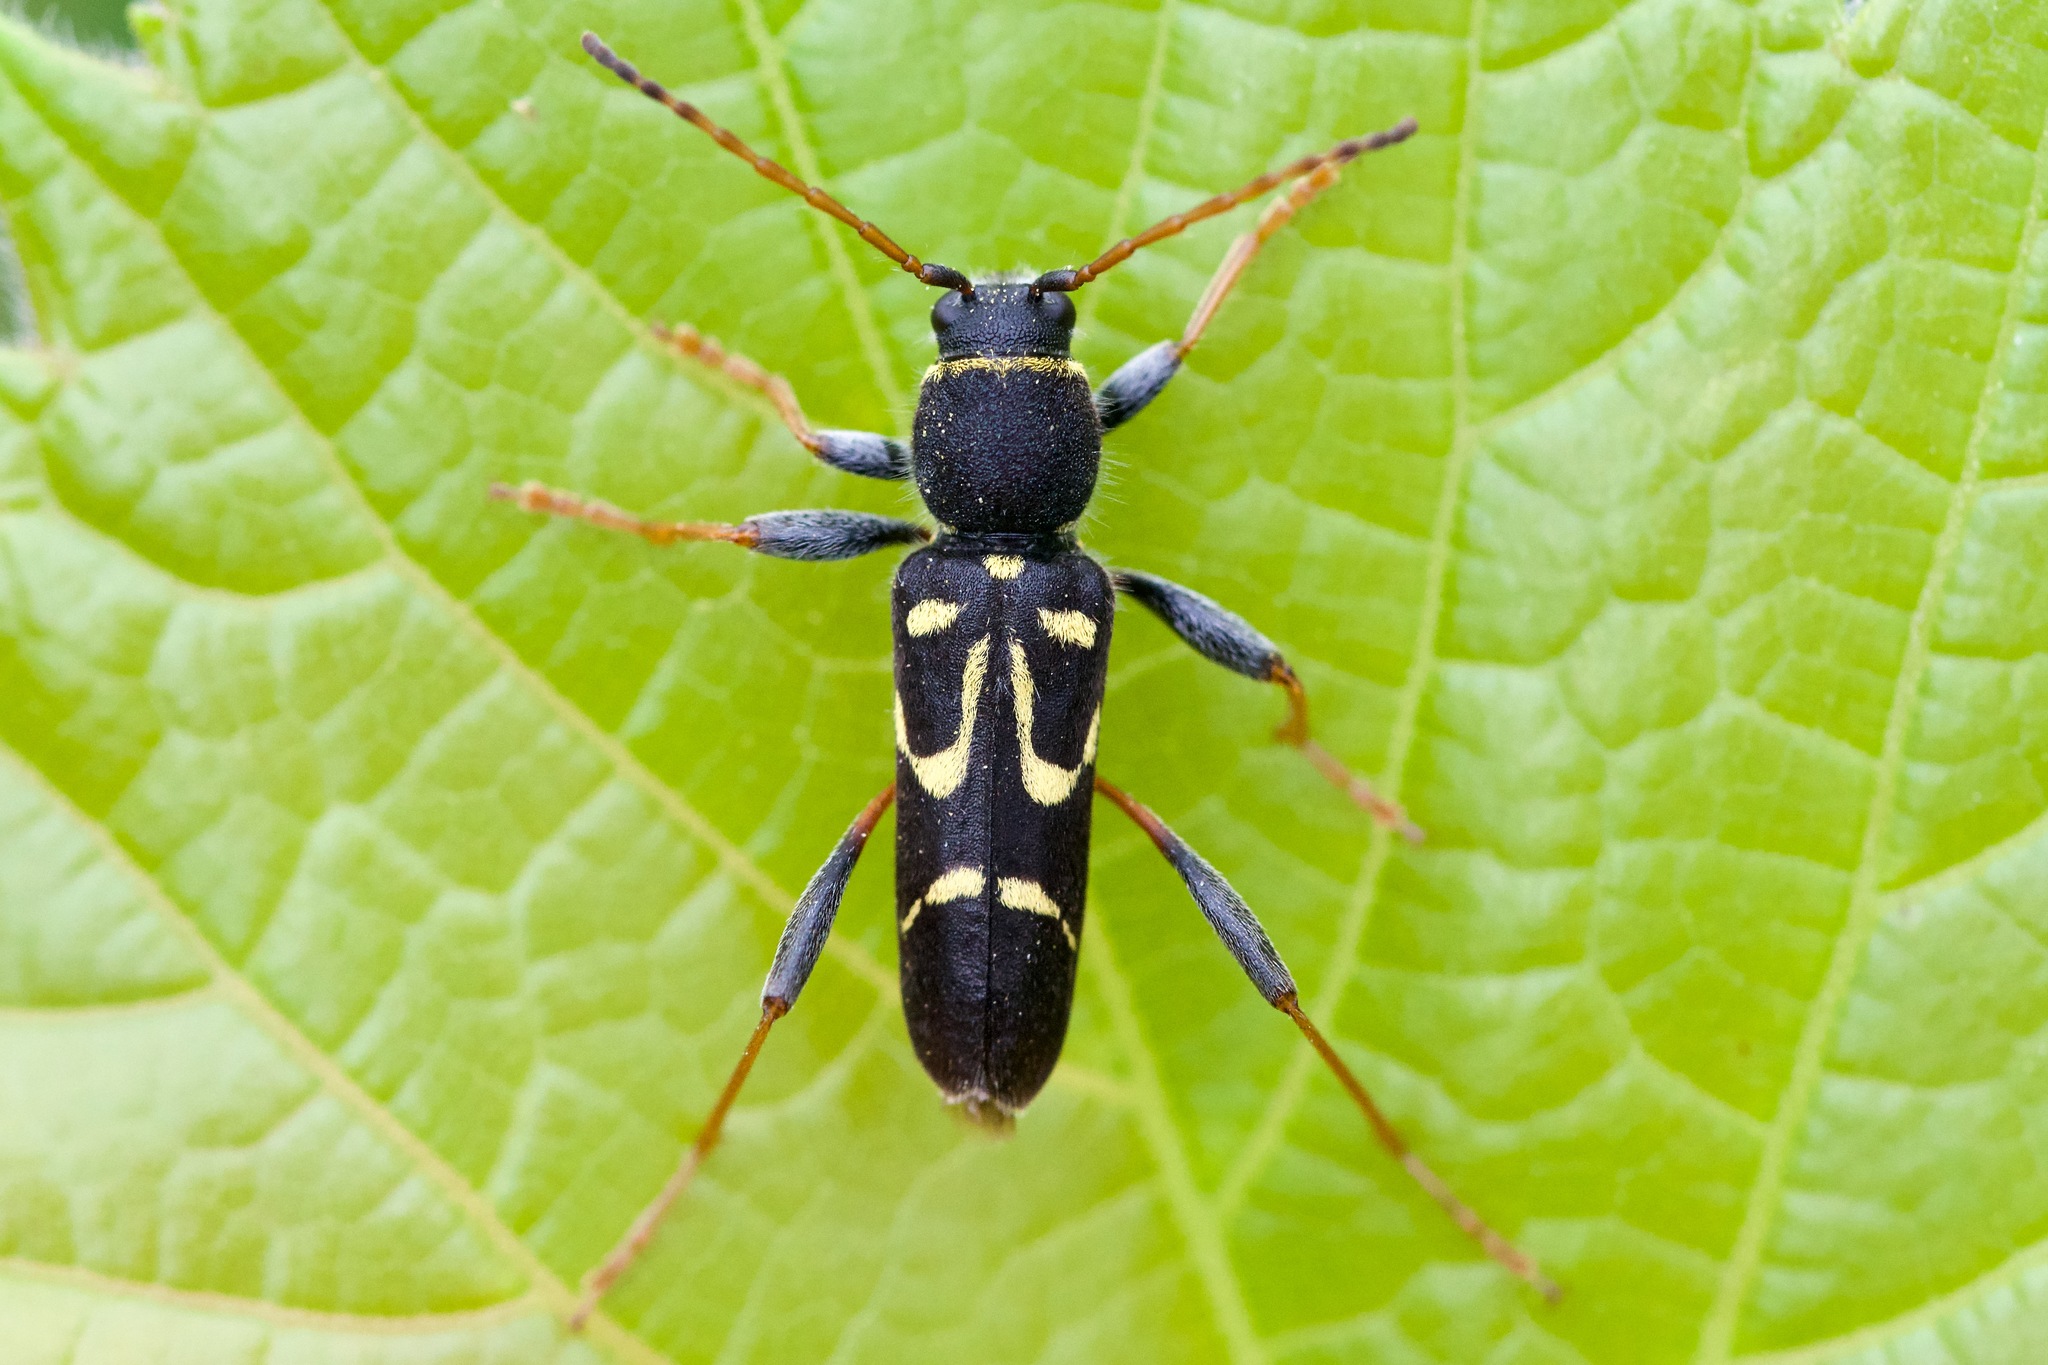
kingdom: Animalia
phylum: Arthropoda
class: Insecta
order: Coleoptera
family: Cerambycidae
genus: Clytus
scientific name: Clytus ruricola
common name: Round-necked longhorn beetle
